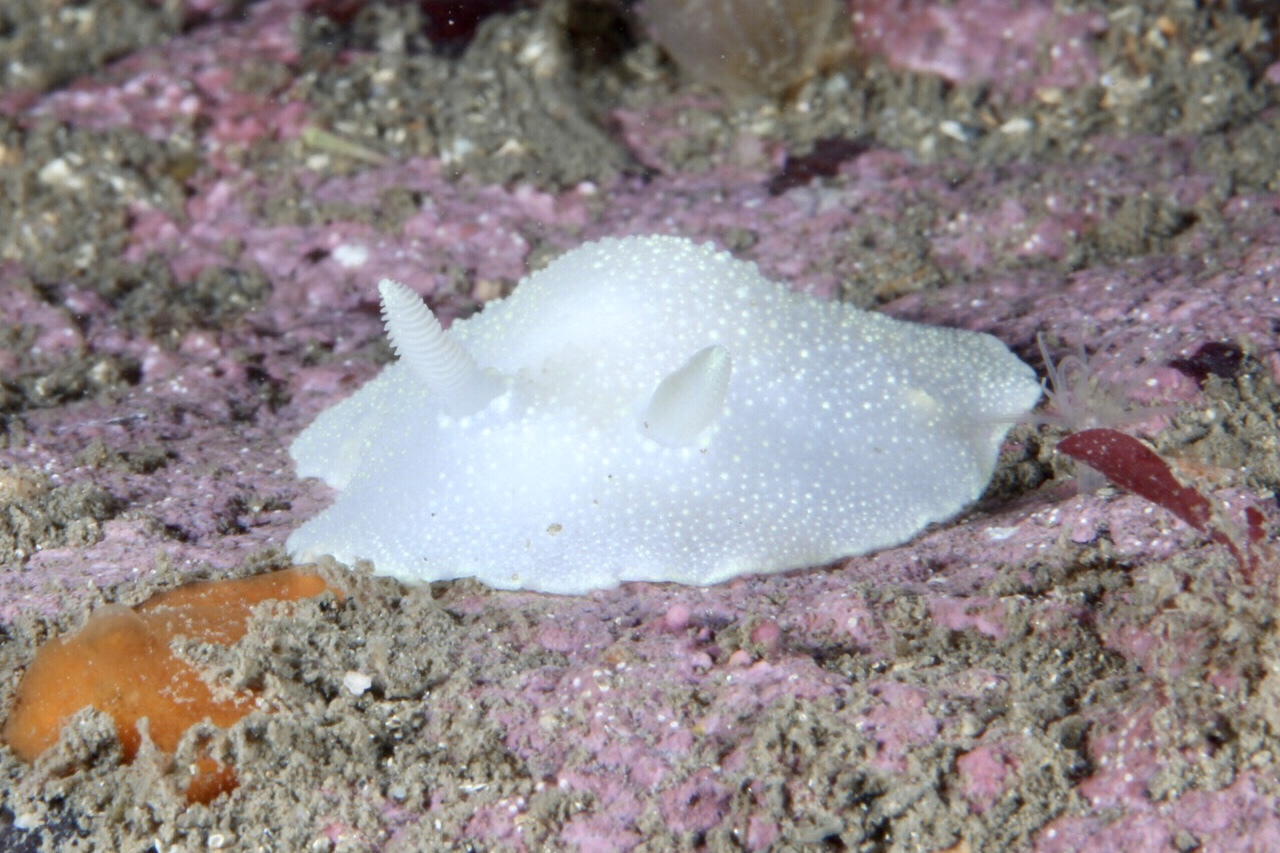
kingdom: Animalia
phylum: Mollusca
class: Gastropoda
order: Nudibranchia
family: Cadlinidae
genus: Cadlina
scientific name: Cadlina laevis
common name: White atlantic cadlina
